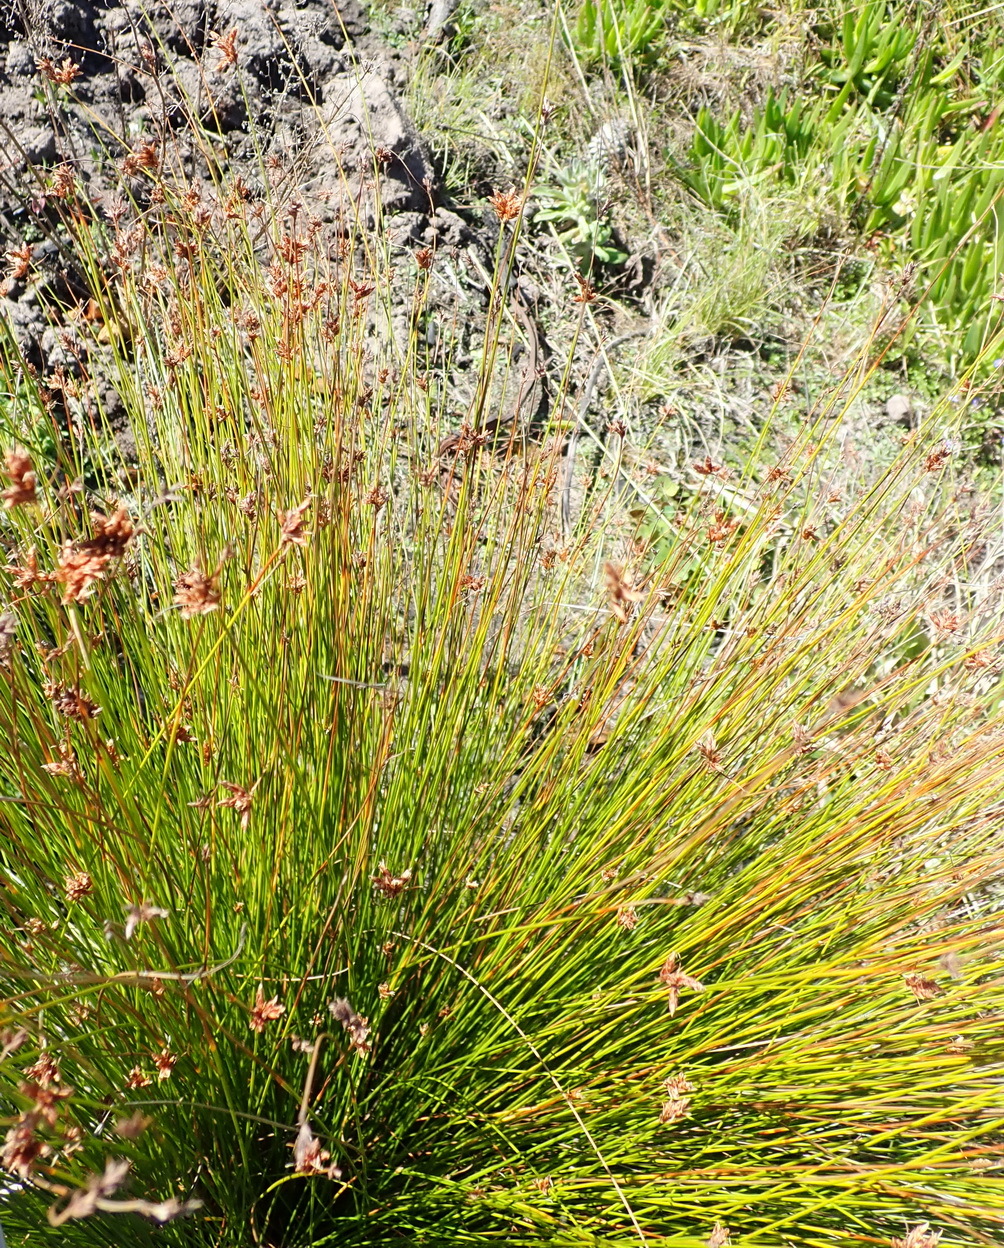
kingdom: Plantae
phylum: Tracheophyta
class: Liliopsida
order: Poales
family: Cyperaceae
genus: Ficinia
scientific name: Ficinia fascicularis
